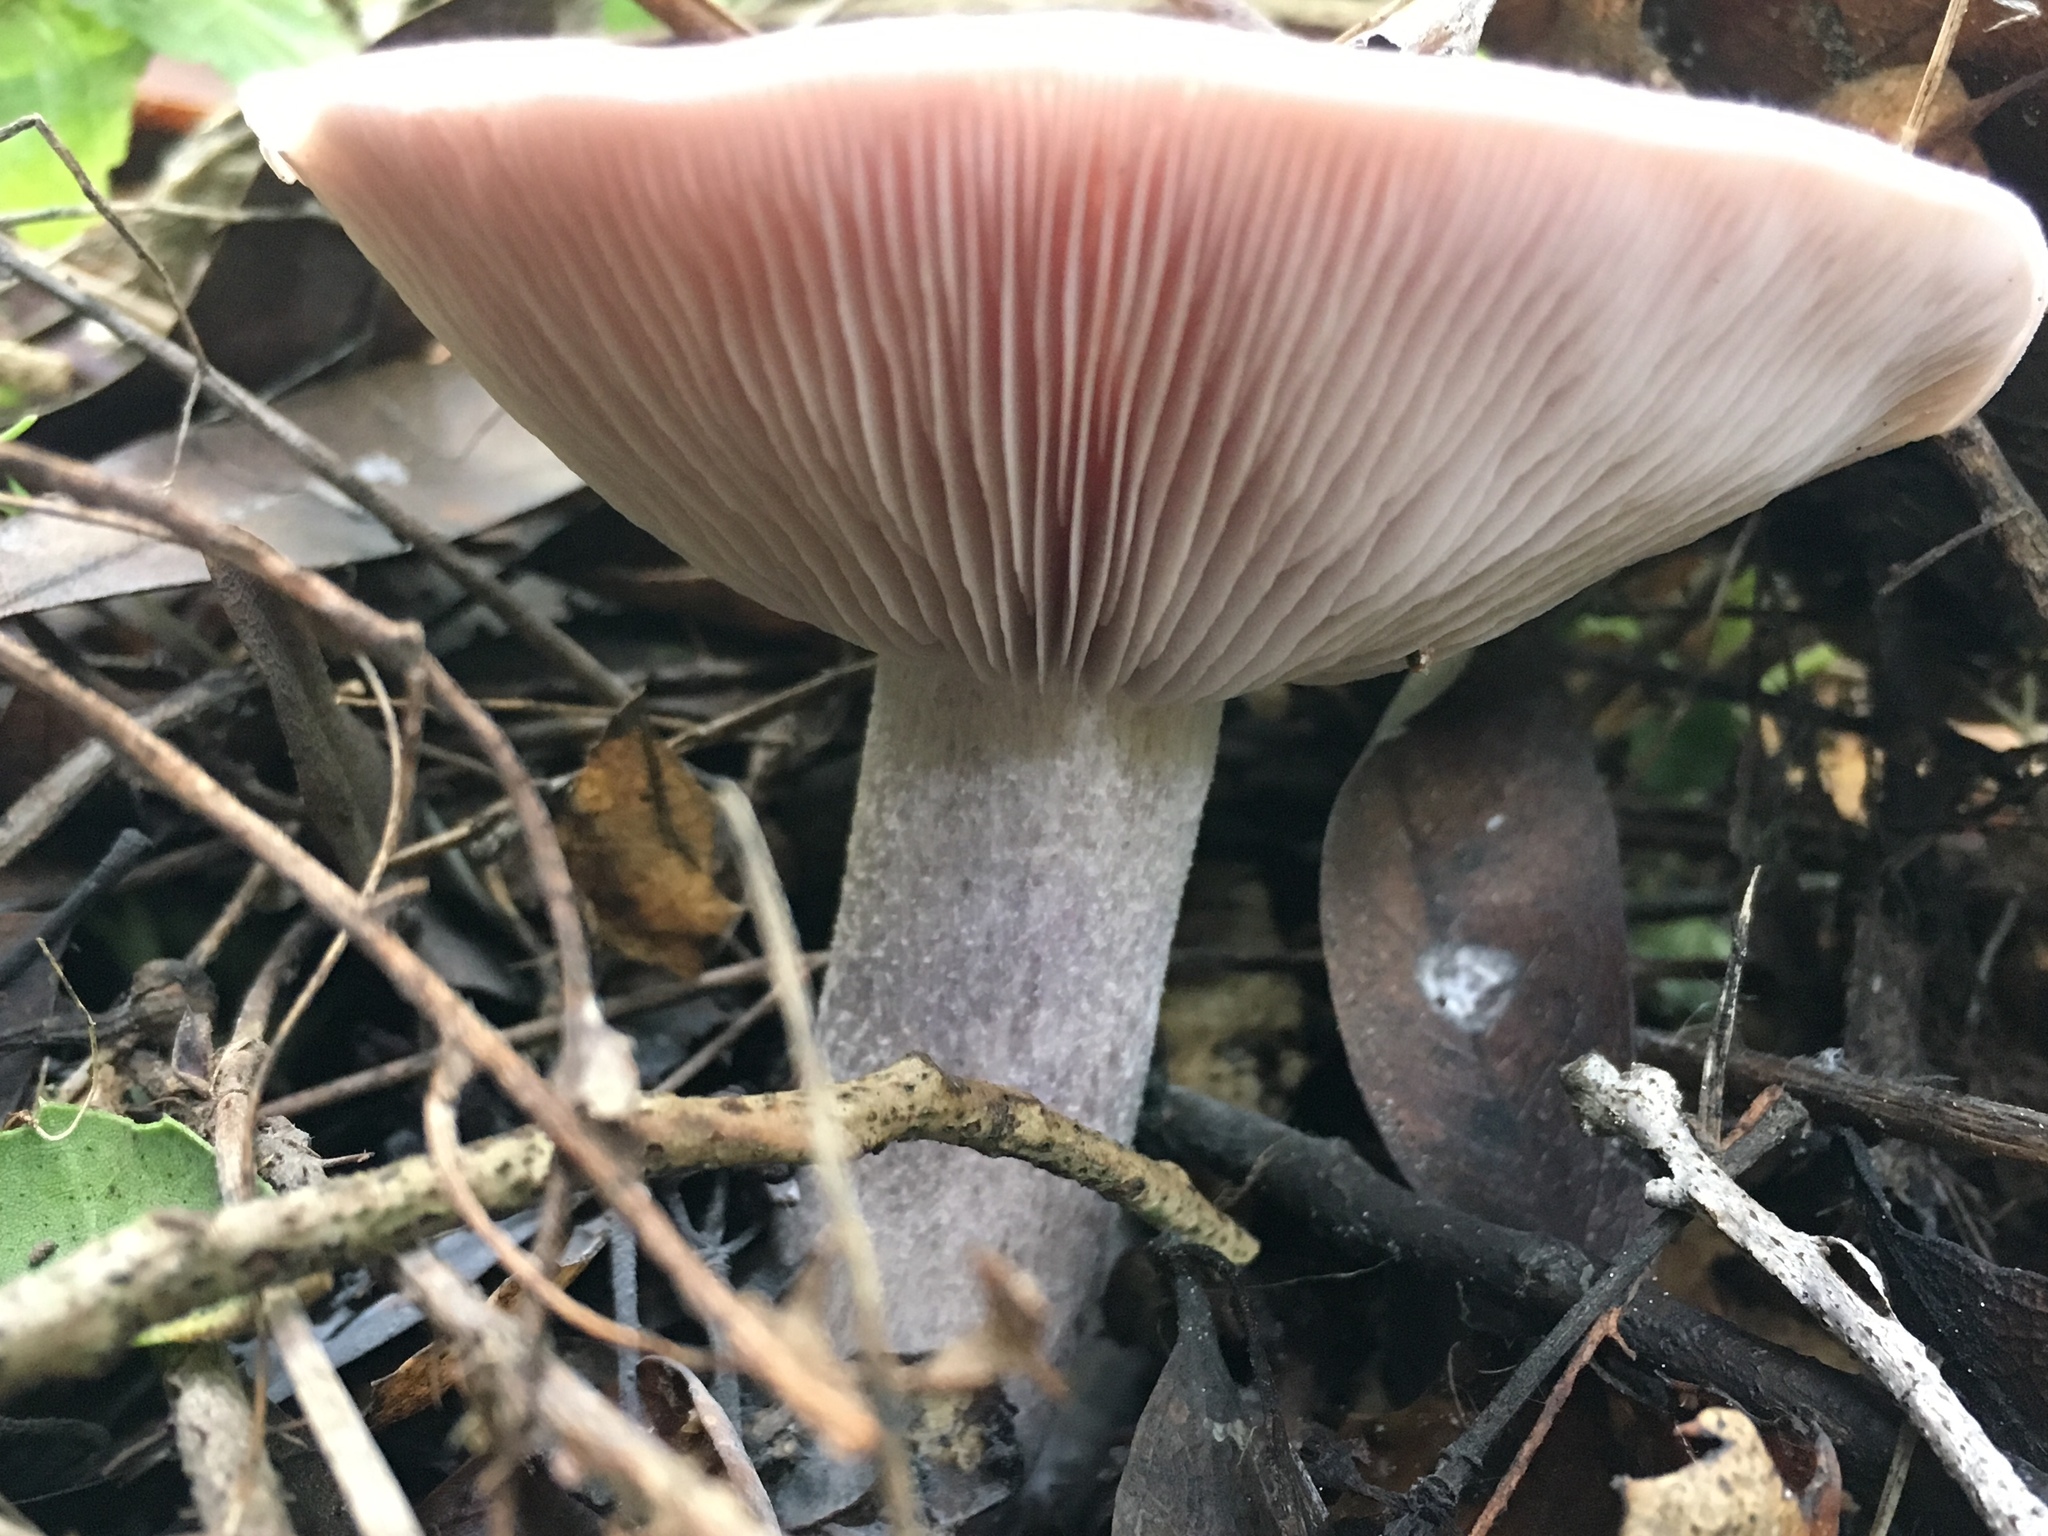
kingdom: Fungi
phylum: Basidiomycota
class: Agaricomycetes
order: Agaricales
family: Tricholomataceae
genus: Collybia
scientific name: Collybia
